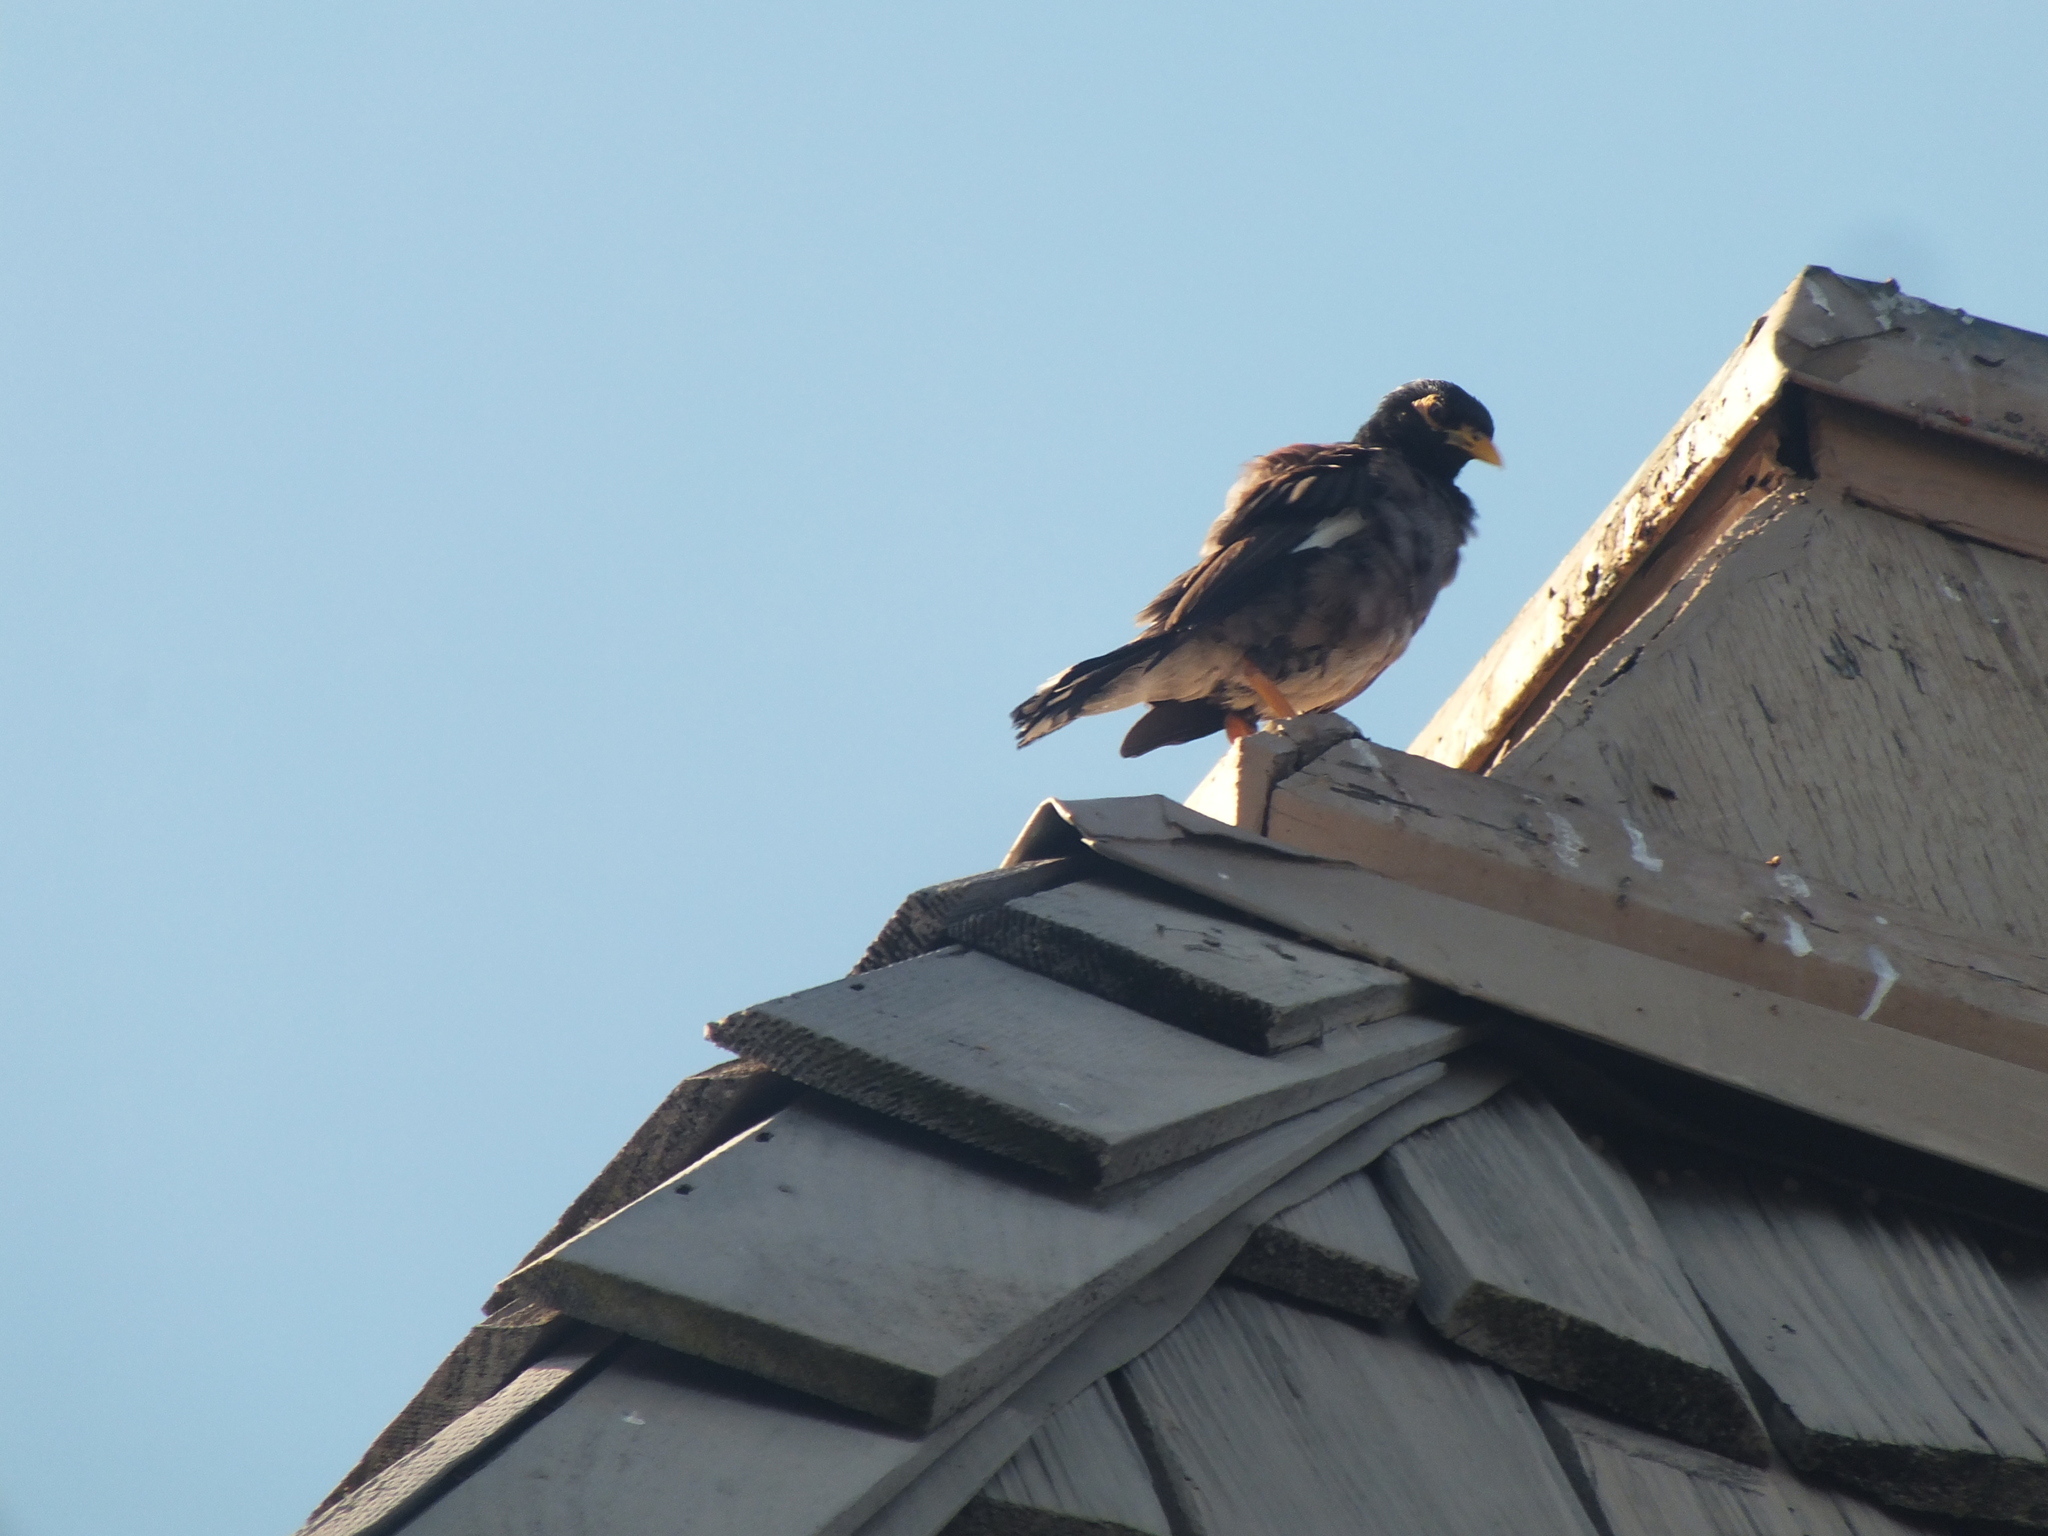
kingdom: Animalia
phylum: Chordata
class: Aves
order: Passeriformes
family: Sturnidae
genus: Acridotheres
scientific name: Acridotheres tristis
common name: Common myna
